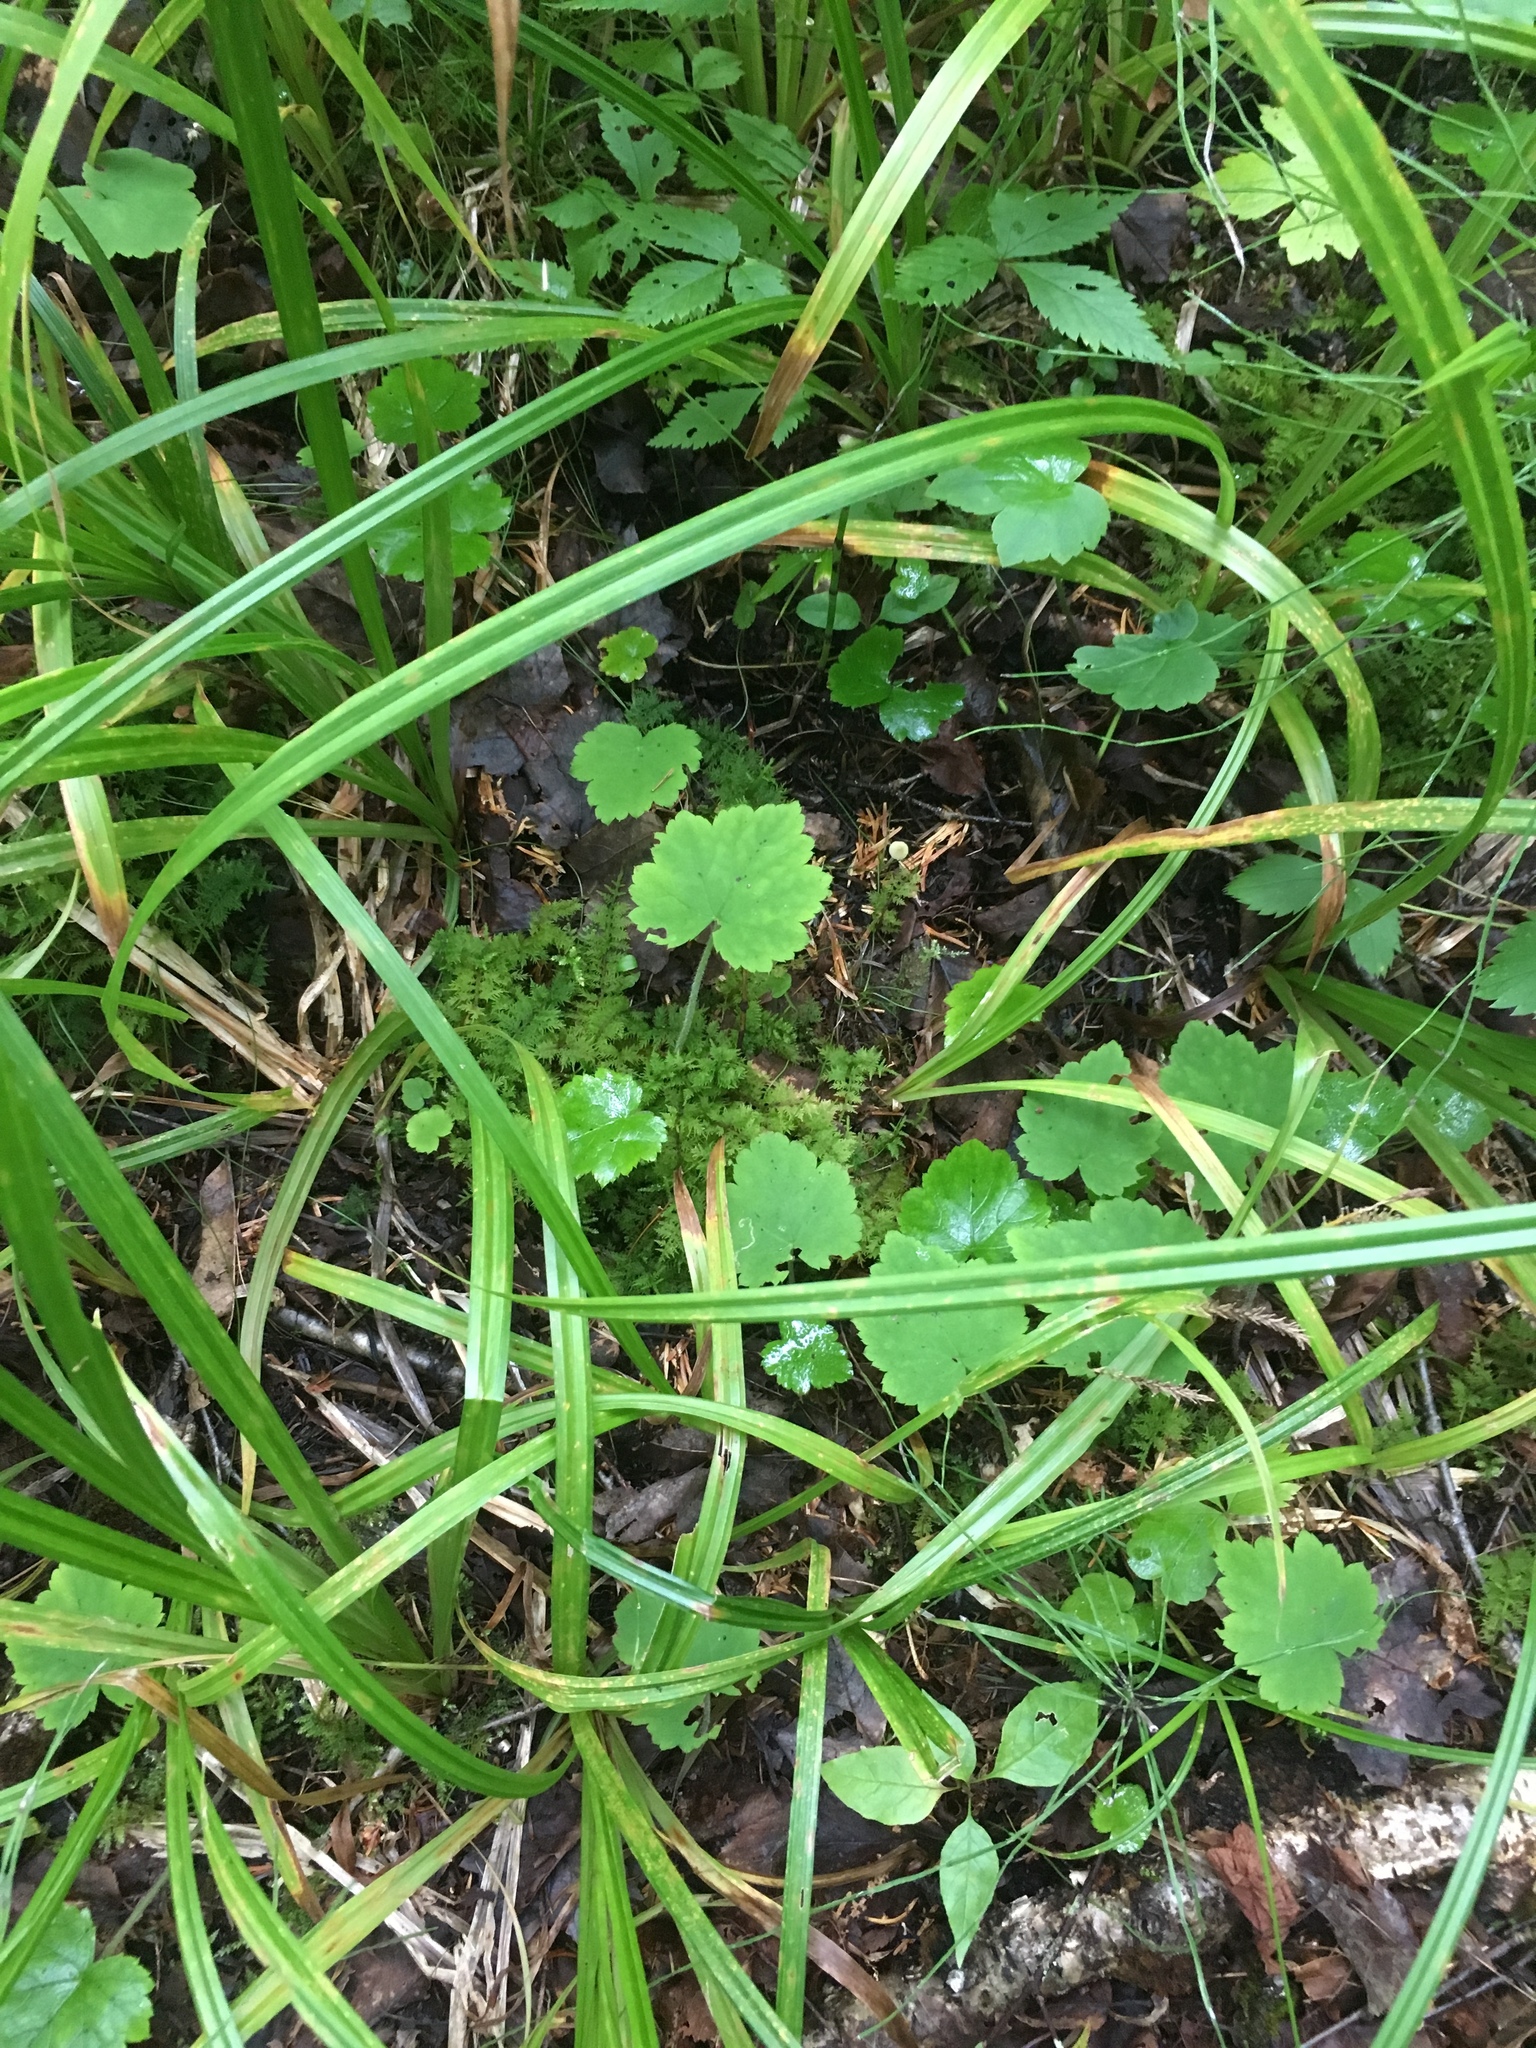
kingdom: Plantae
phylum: Tracheophyta
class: Magnoliopsida
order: Saxifragales
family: Saxifragaceae
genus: Tiarella
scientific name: Tiarella stolonifera
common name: Stoloniferous foamflower
